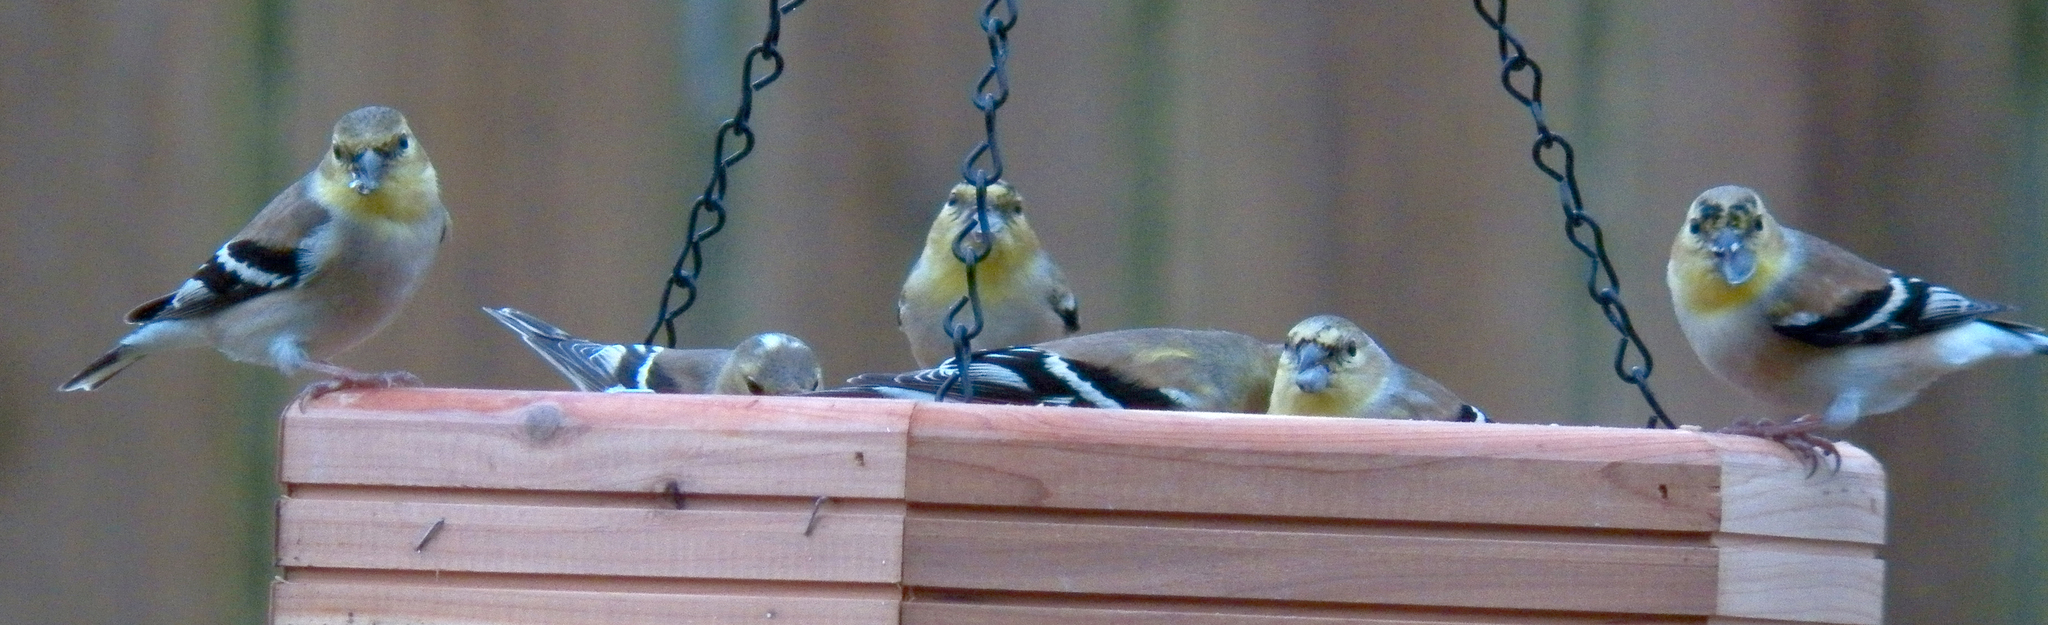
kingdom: Animalia
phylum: Chordata
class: Aves
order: Passeriformes
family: Fringillidae
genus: Spinus
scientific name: Spinus tristis
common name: American goldfinch
